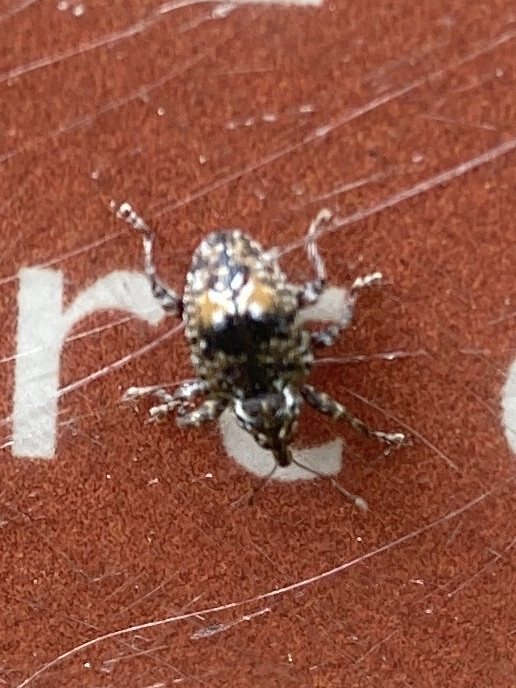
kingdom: Animalia
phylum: Arthropoda
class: Insecta
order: Coleoptera
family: Curculionidae
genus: Conotrachelus
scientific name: Conotrachelus nenuphar
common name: Plum curculio
